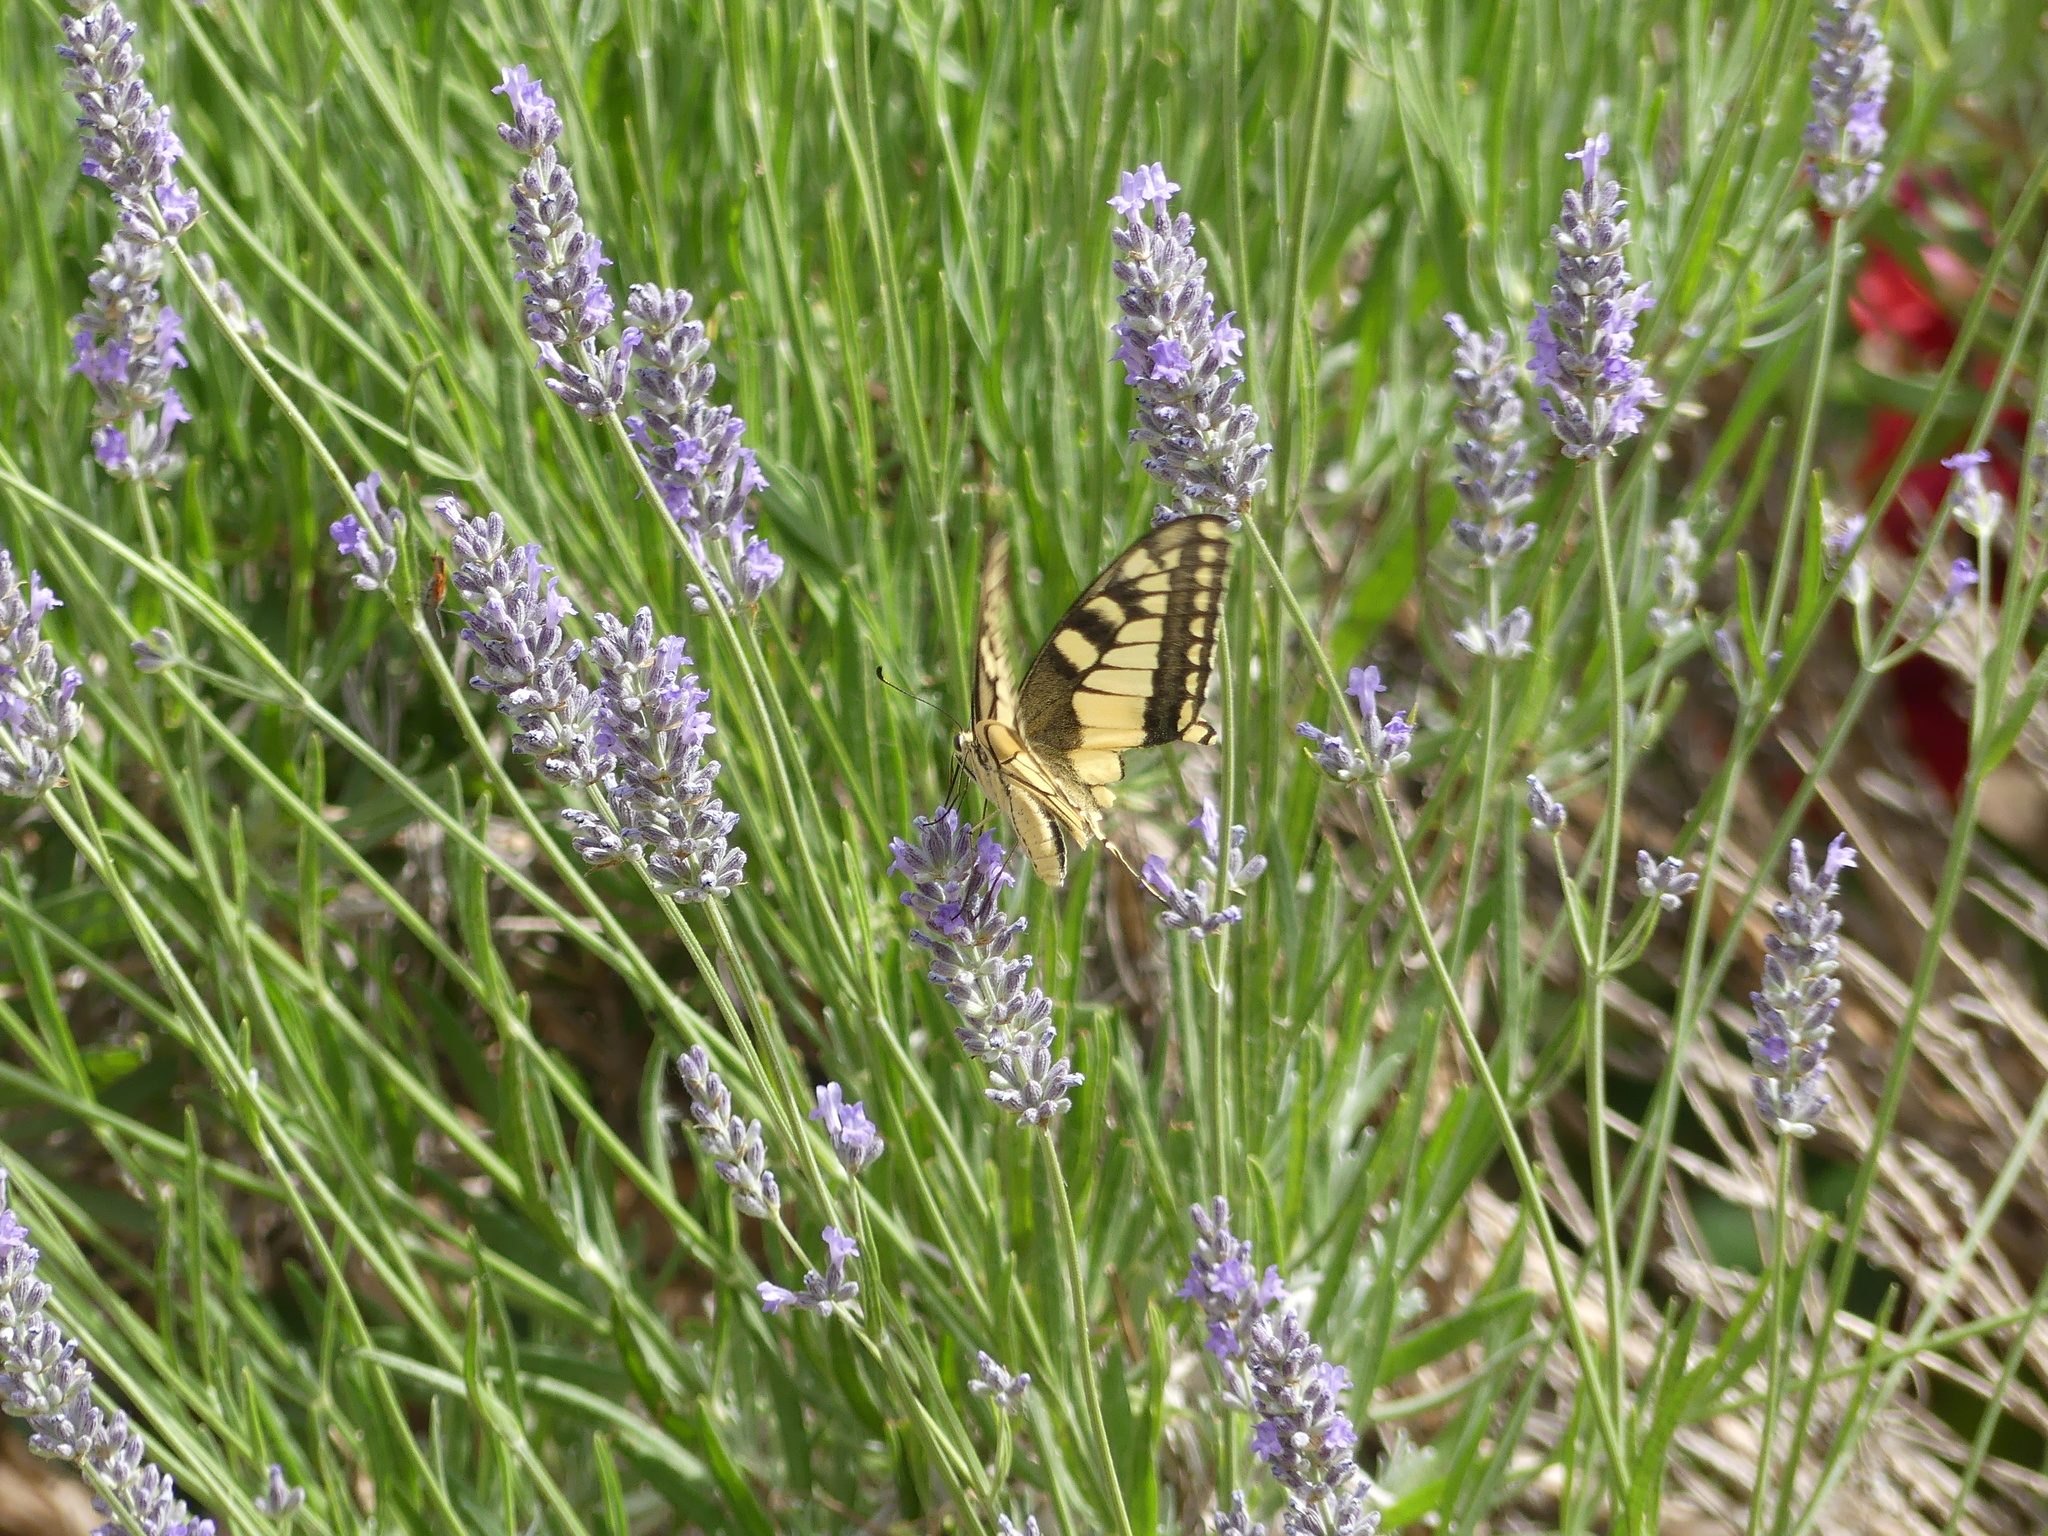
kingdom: Animalia
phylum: Arthropoda
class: Insecta
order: Lepidoptera
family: Papilionidae
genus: Papilio
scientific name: Papilio machaon
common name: Swallowtail
